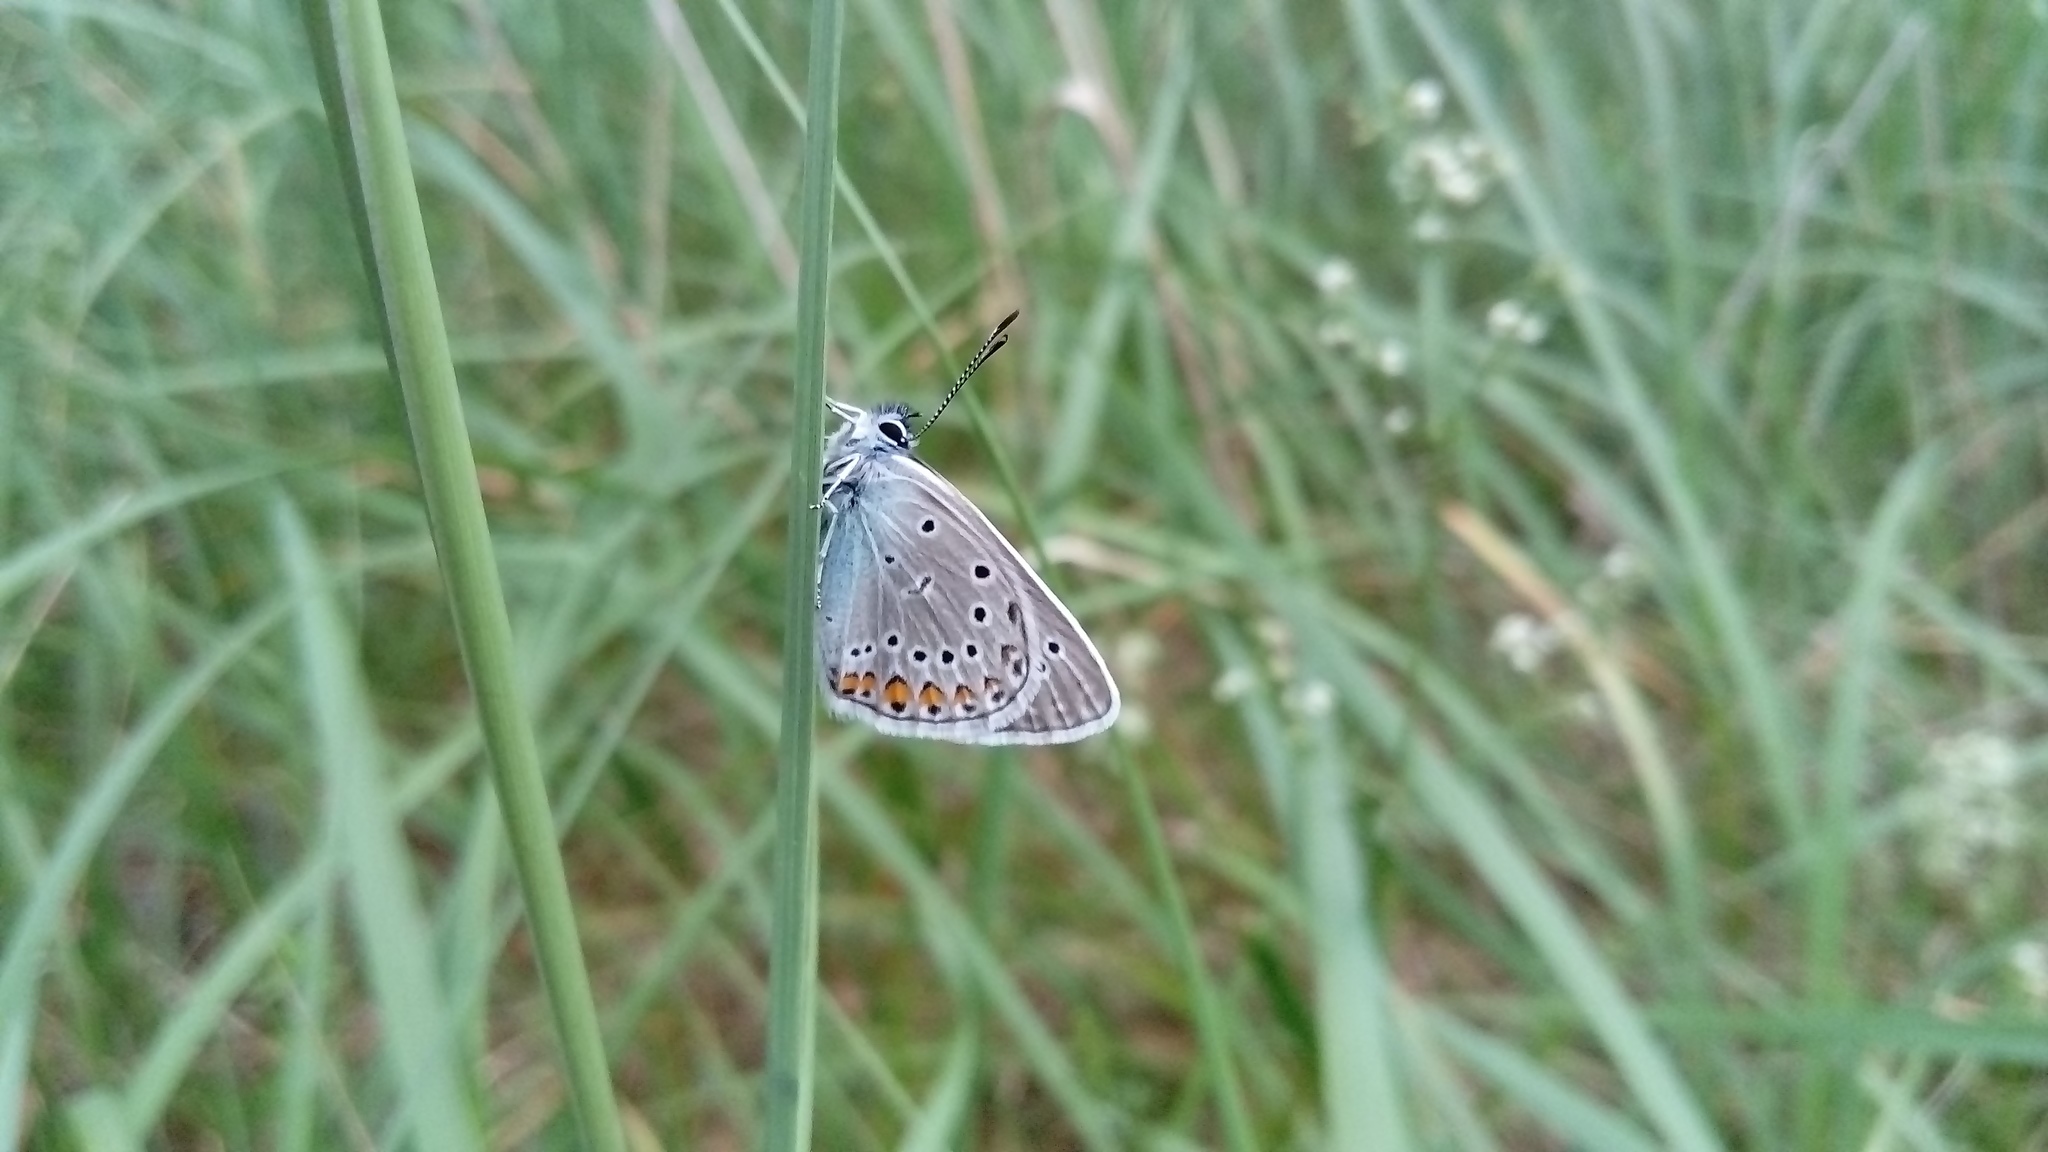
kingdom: Animalia
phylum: Arthropoda
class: Insecta
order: Lepidoptera
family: Lycaenidae
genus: Plebejus
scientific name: Plebejus amanda
